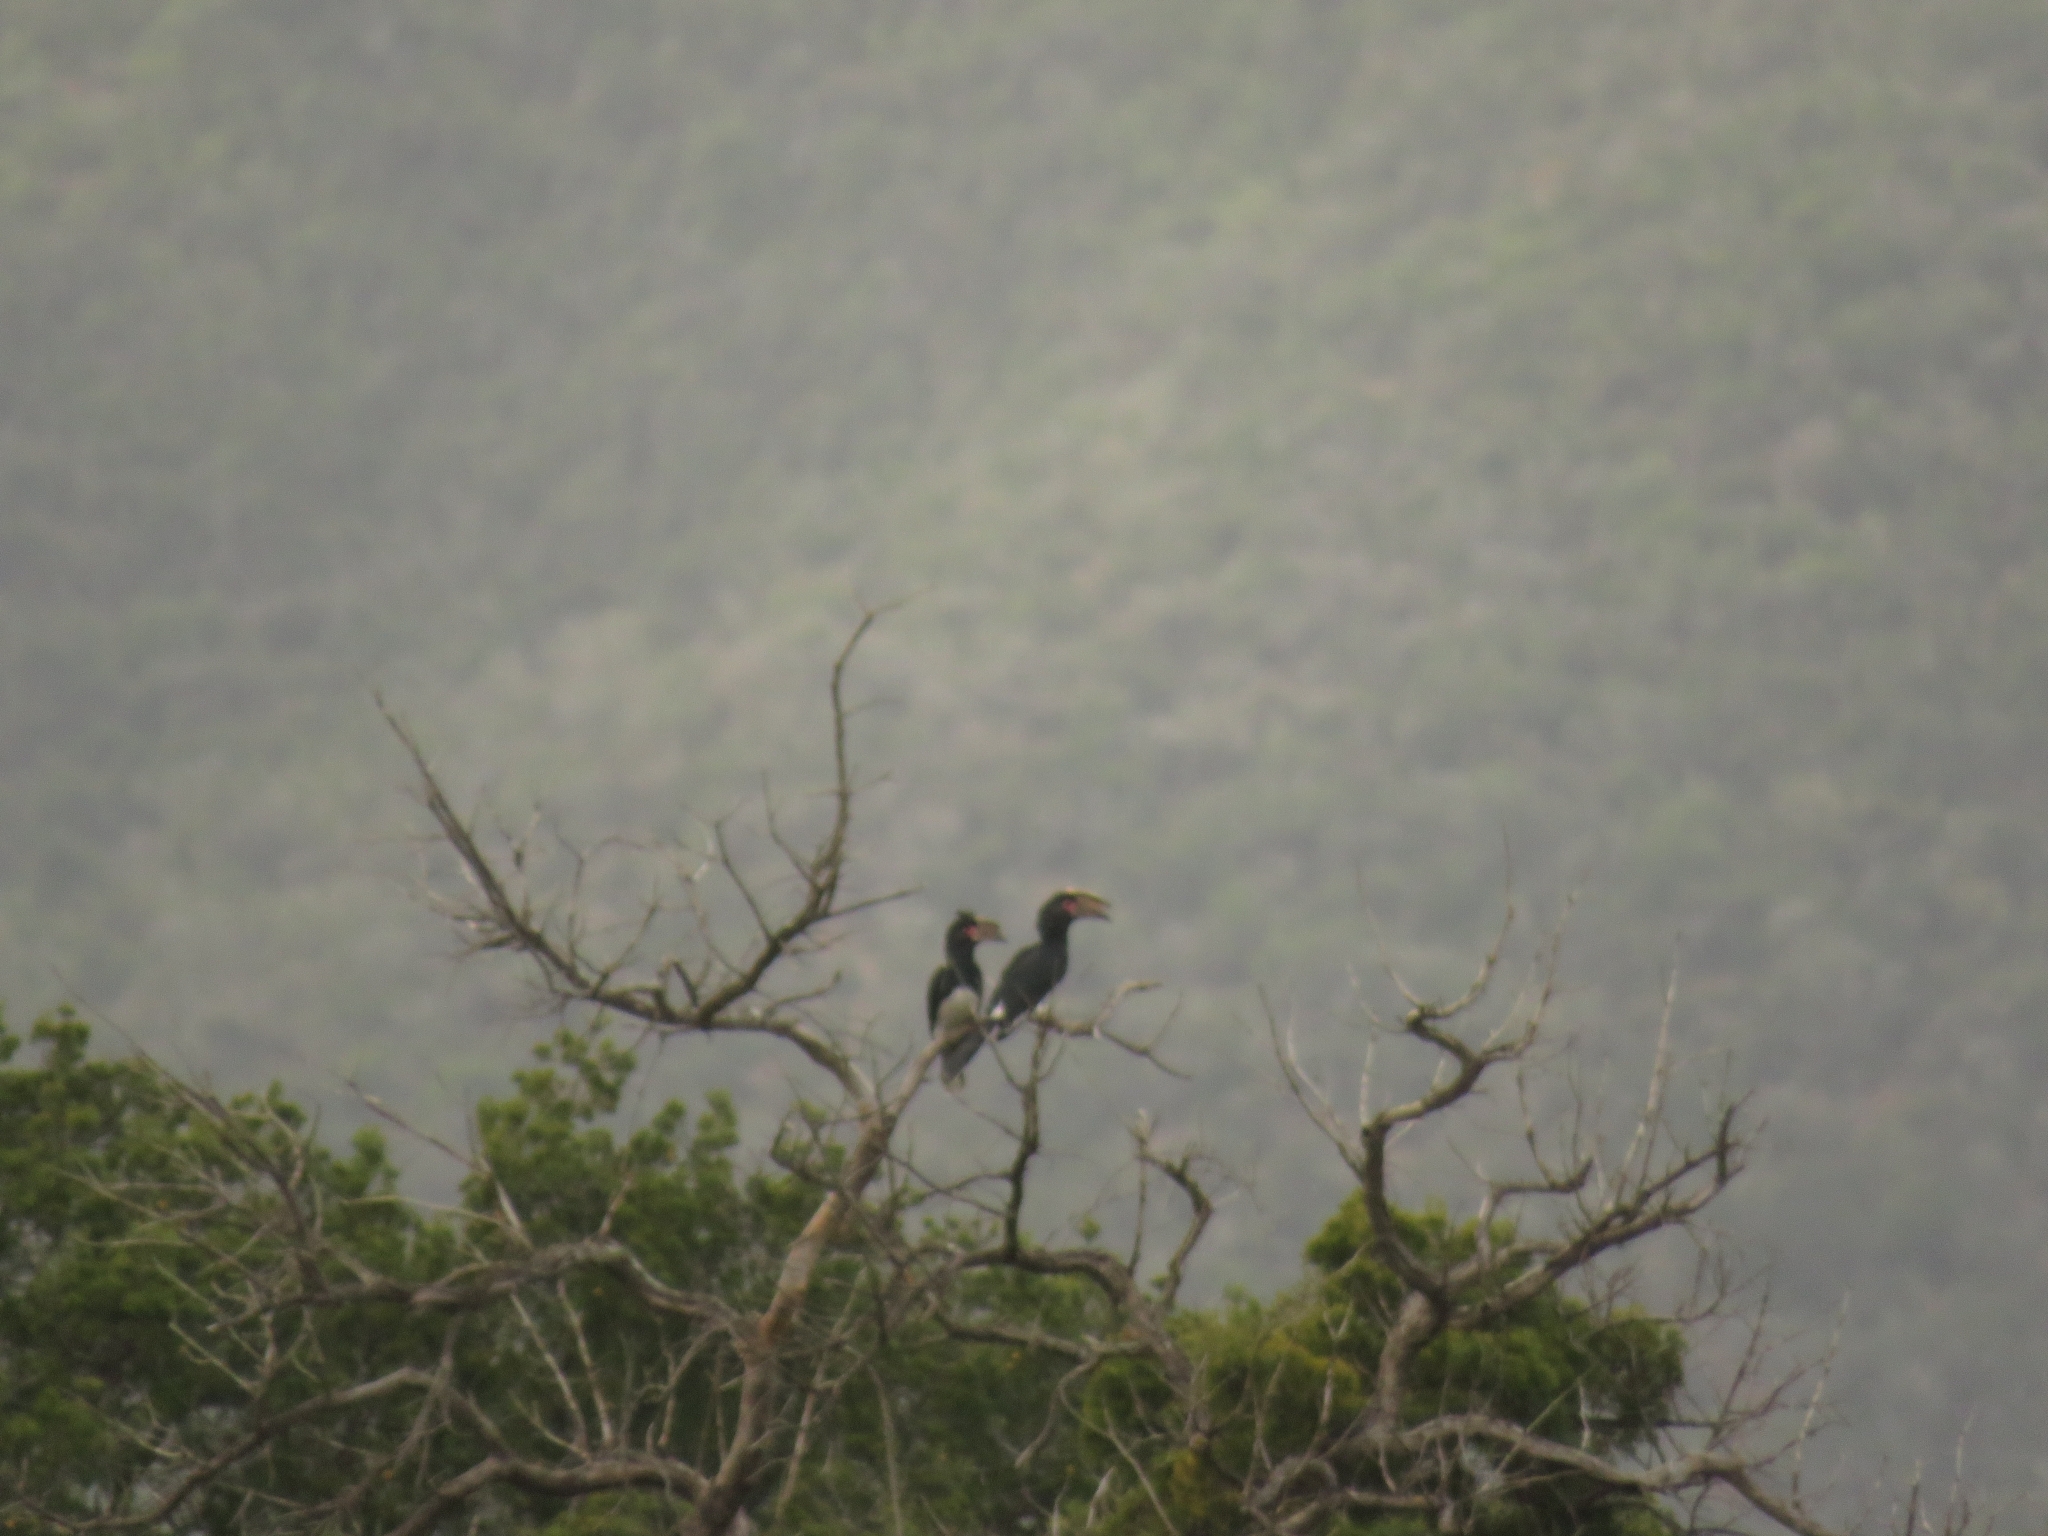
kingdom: Animalia
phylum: Chordata
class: Aves
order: Bucerotiformes
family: Bucerotidae
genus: Bycanistes
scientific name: Bycanistes bucinator
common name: Trumpeter hornbill
